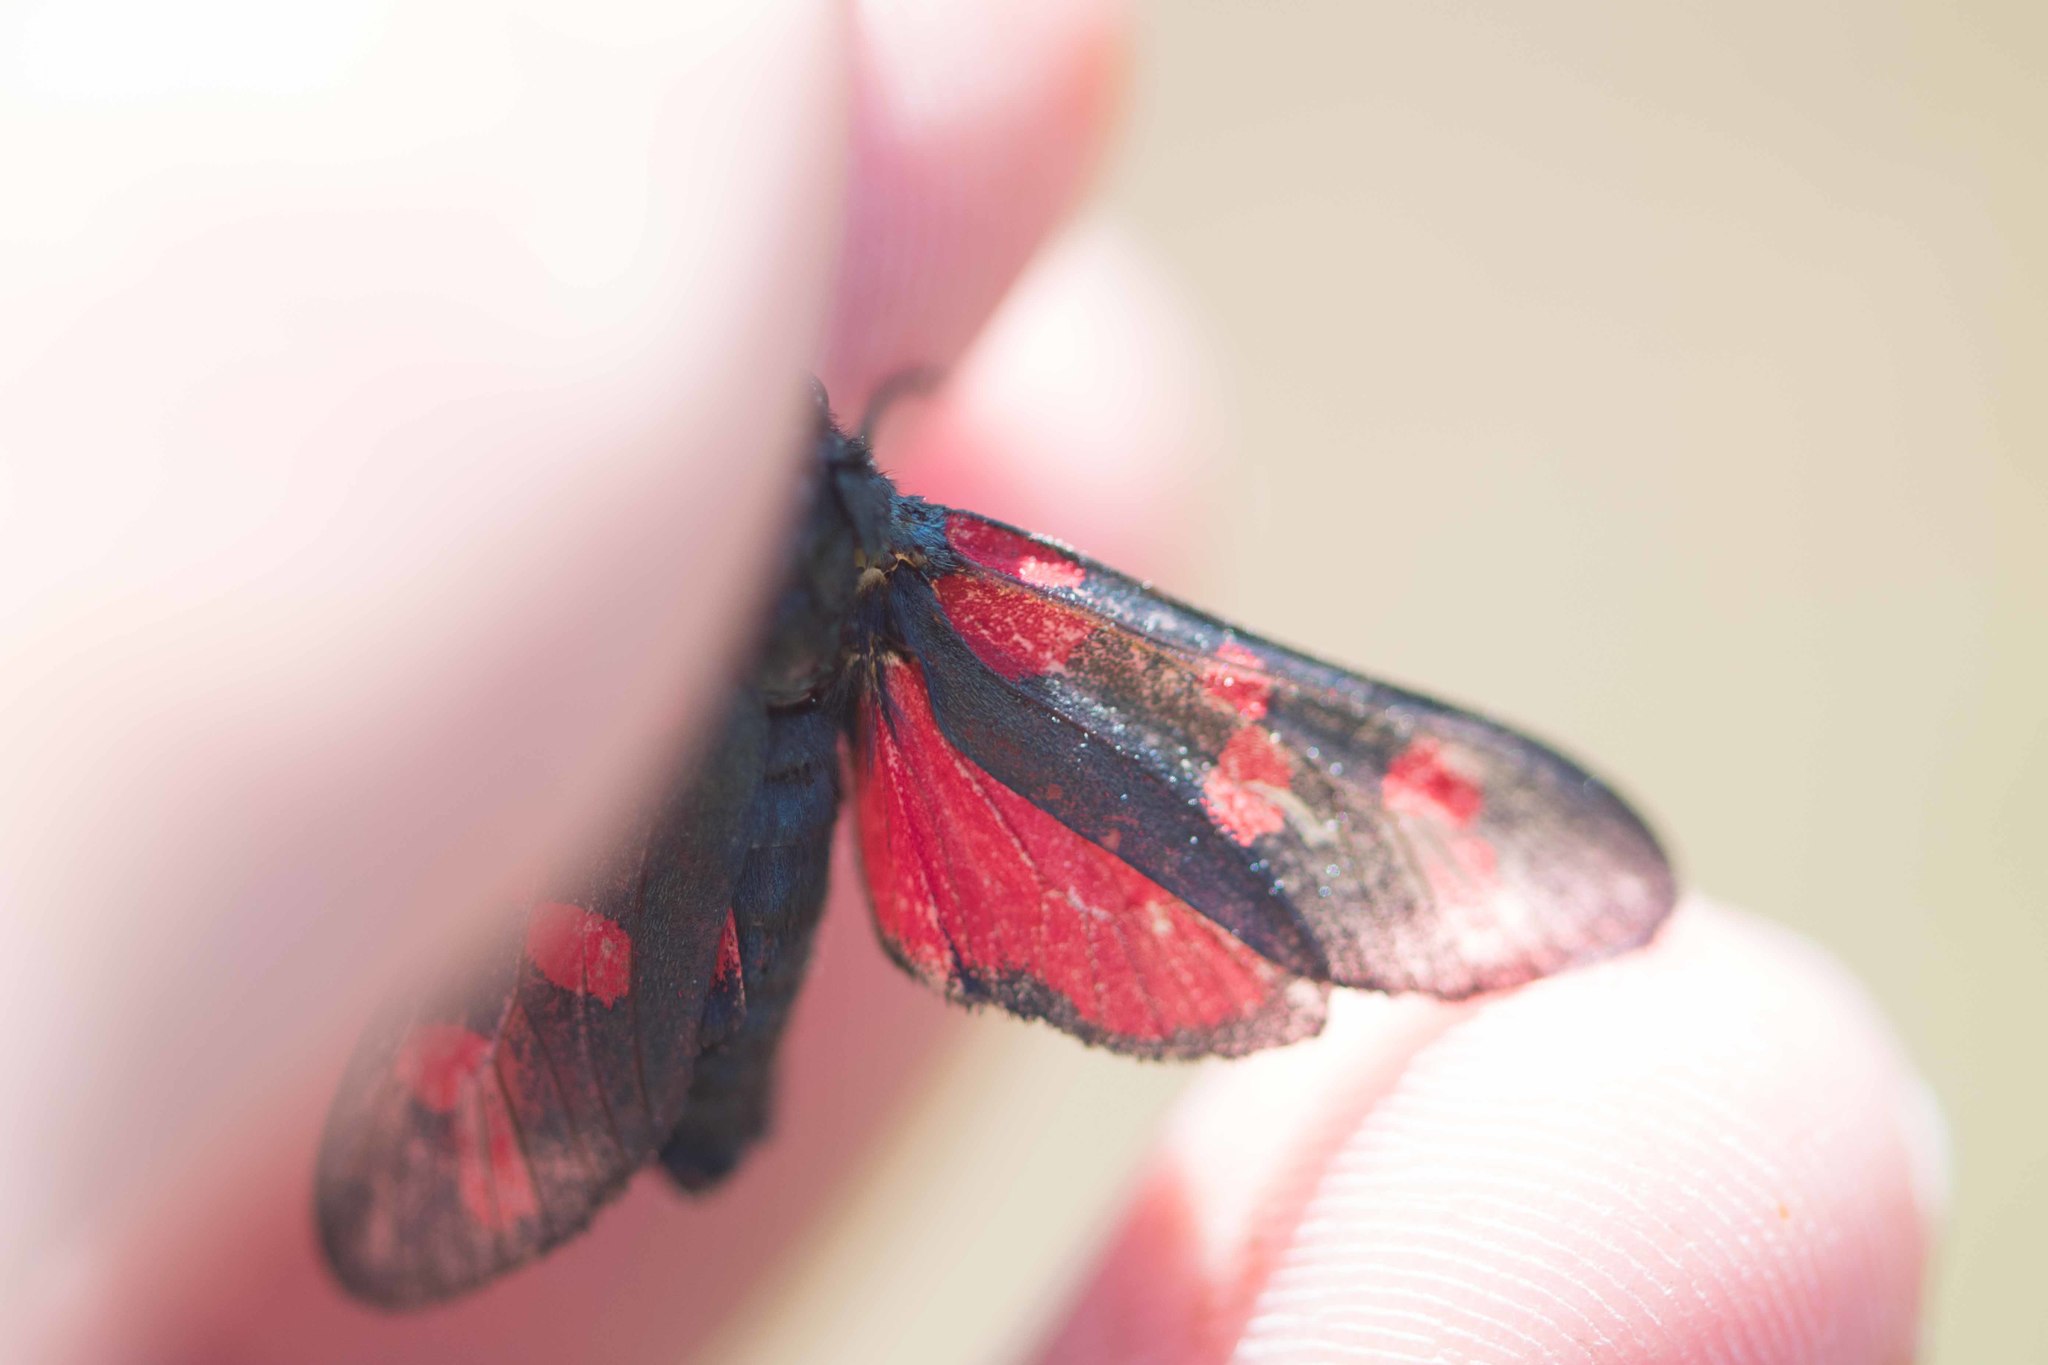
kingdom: Animalia
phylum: Arthropoda
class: Insecta
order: Lepidoptera
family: Zygaenidae
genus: Zygaena
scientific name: Zygaena filipendulae
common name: Six-spot burnet
